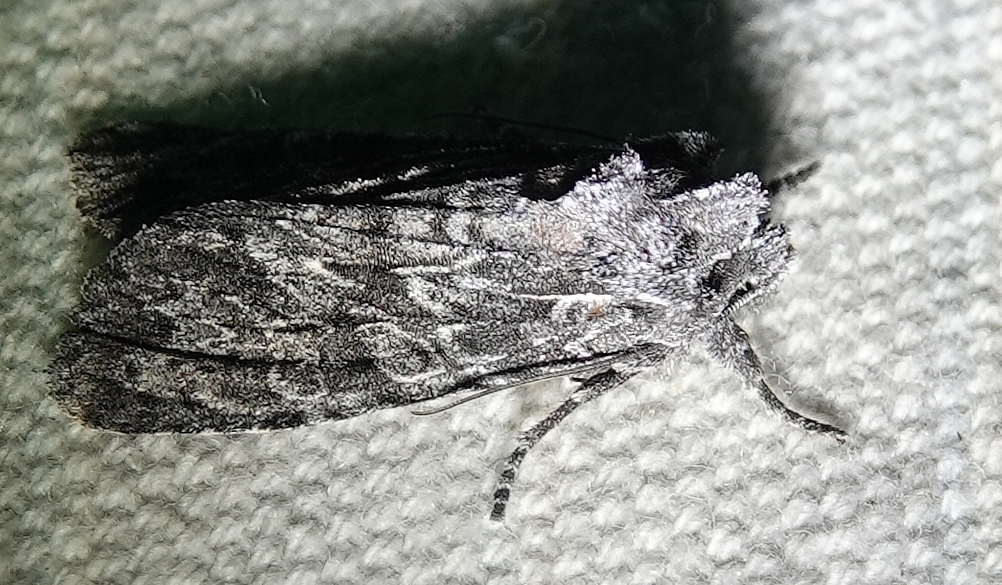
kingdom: Animalia
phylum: Arthropoda
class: Insecta
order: Lepidoptera
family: Noctuidae
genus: Lithophane
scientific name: Lithophane ponderosa
